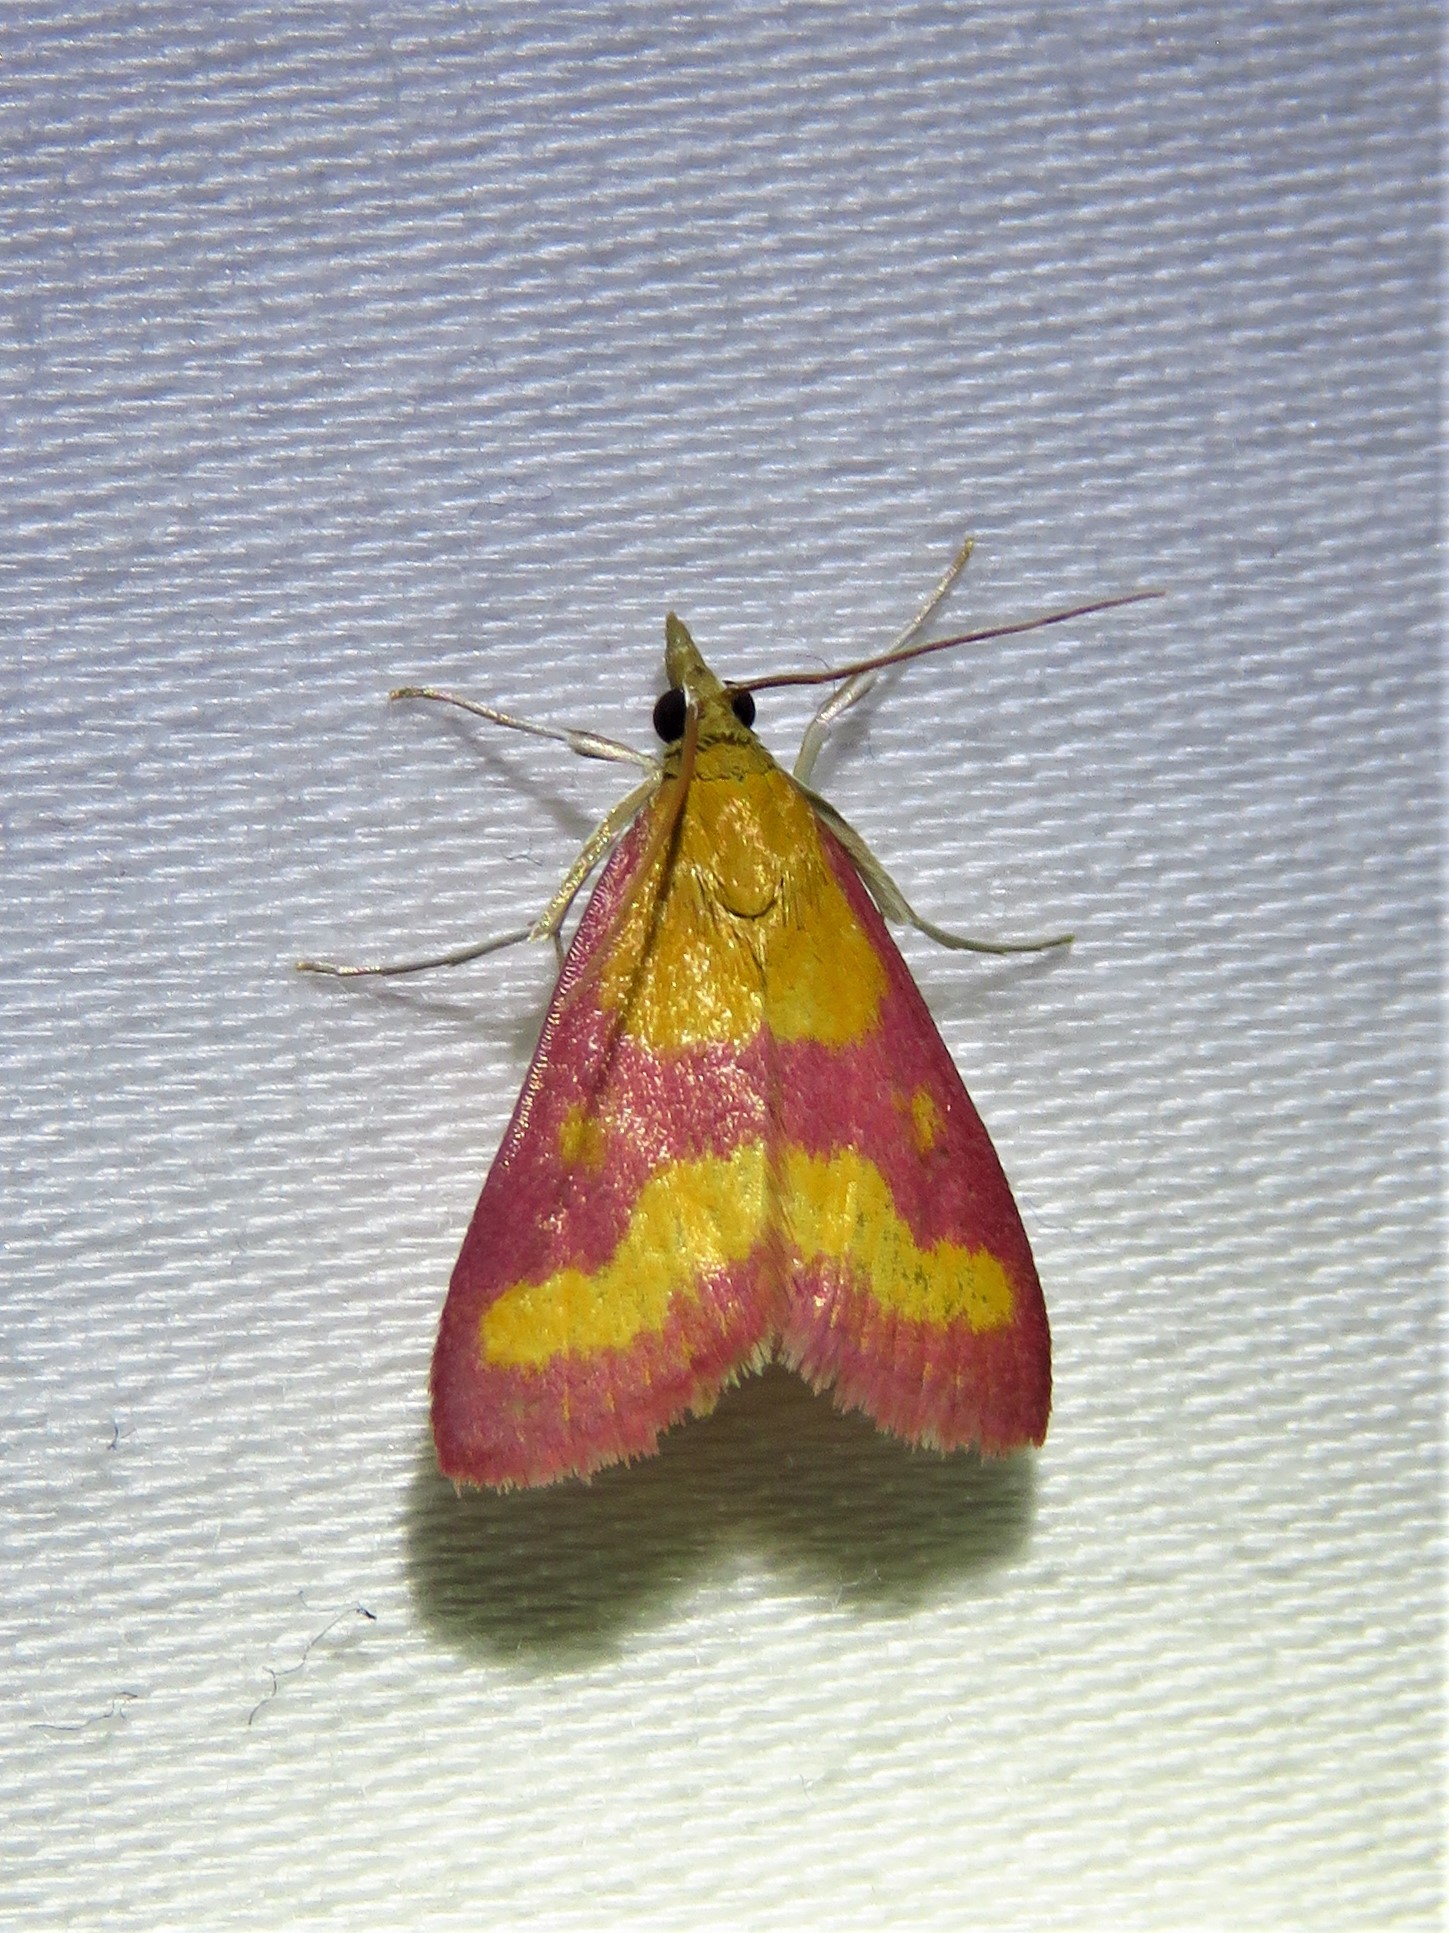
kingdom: Animalia
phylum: Arthropoda
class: Insecta
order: Lepidoptera
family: Crambidae
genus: Pyrausta
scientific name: Pyrausta laticlavia
